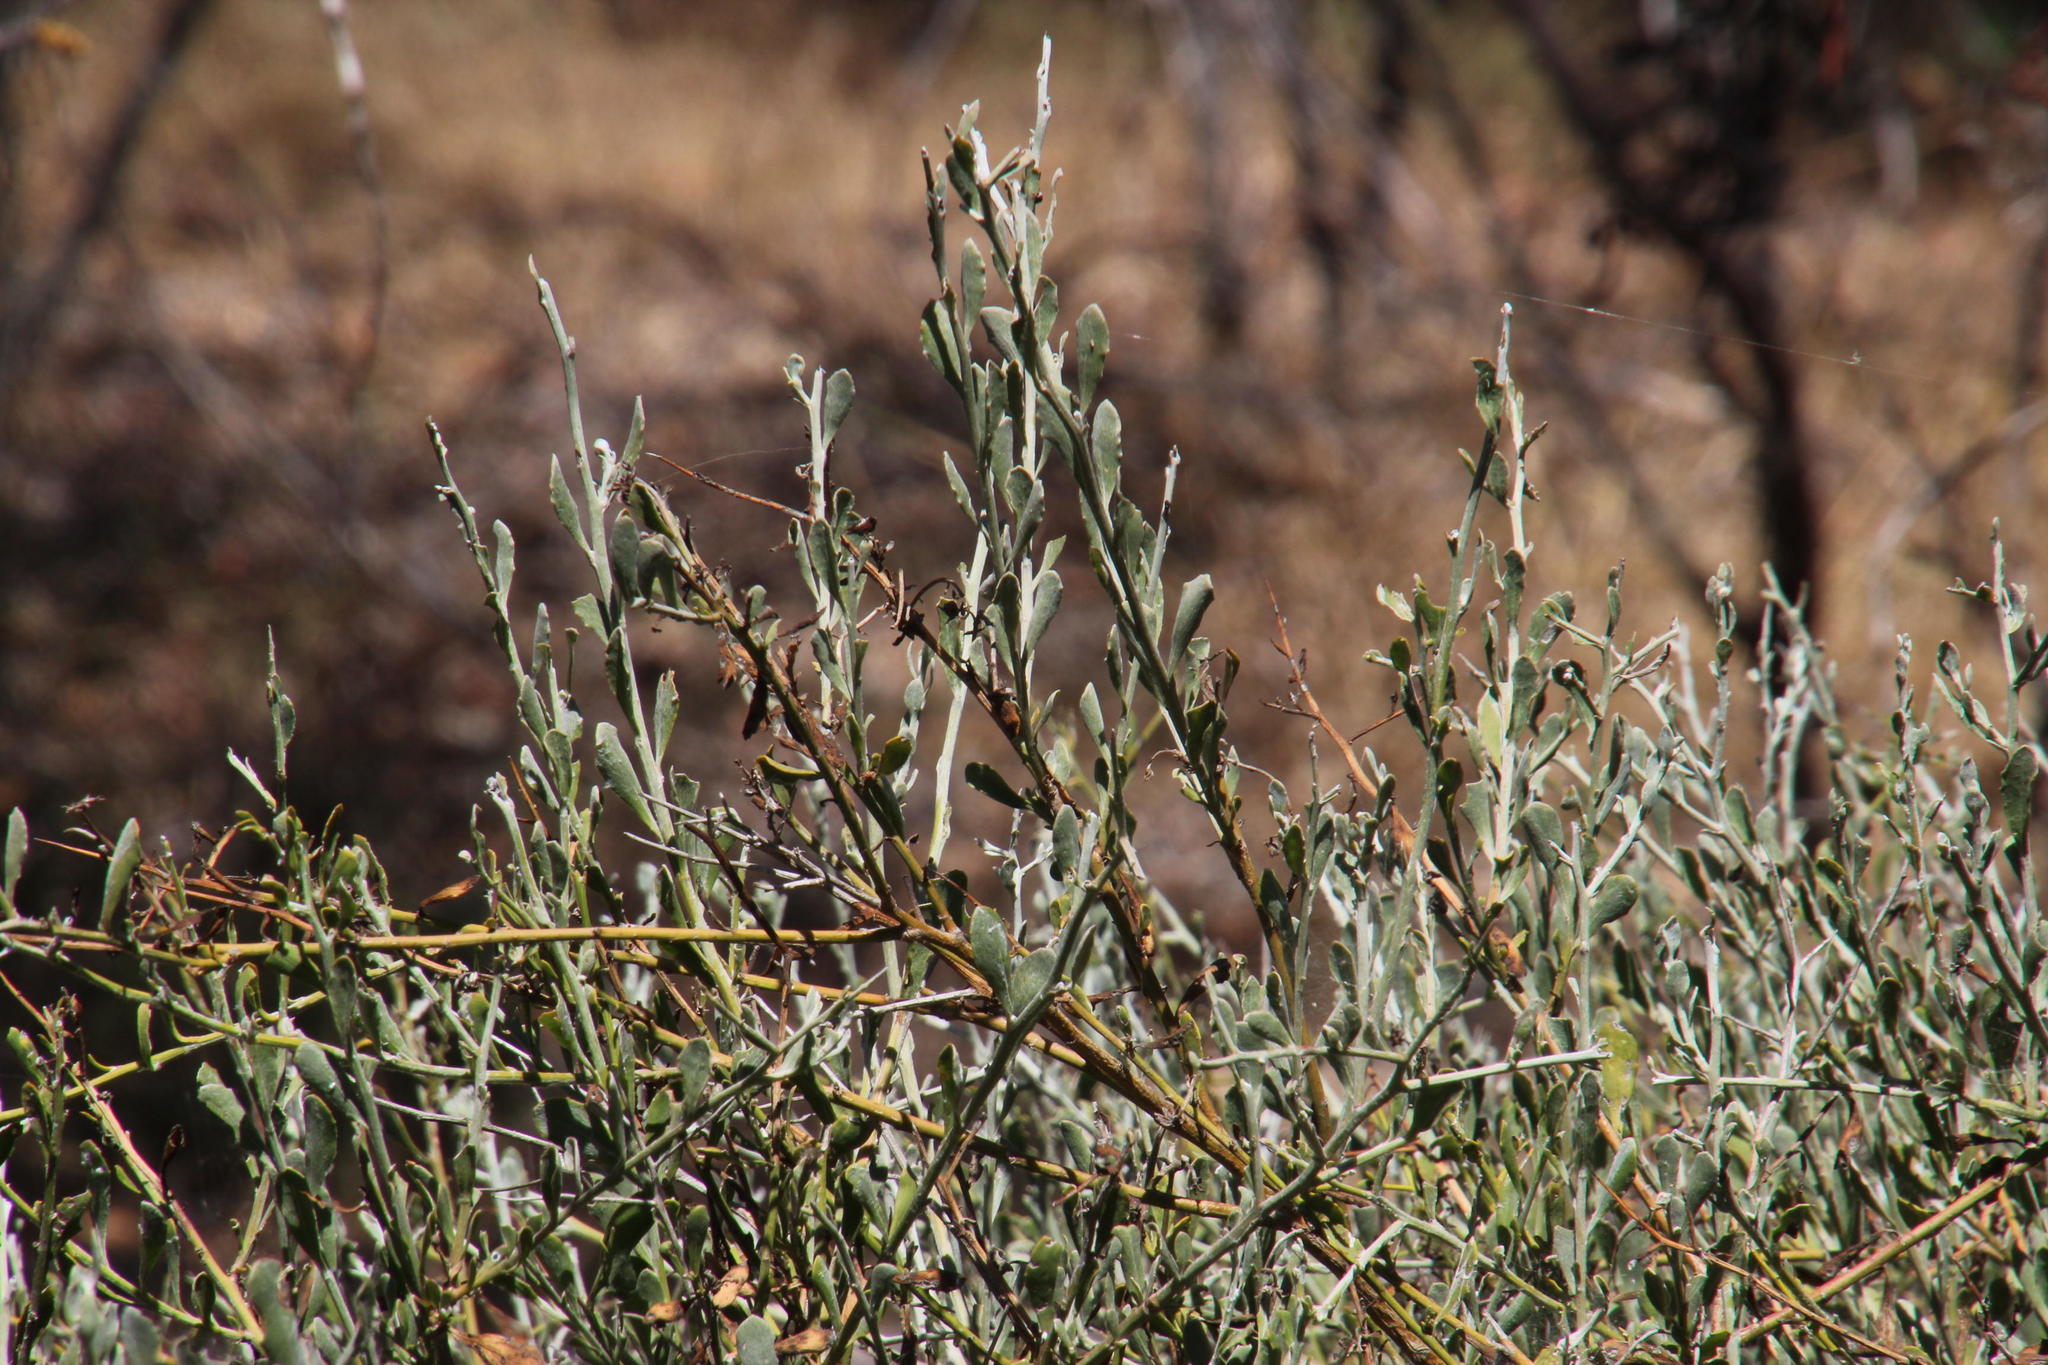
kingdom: Plantae
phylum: Tracheophyta
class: Magnoliopsida
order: Asterales
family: Asteraceae
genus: Osteospermum
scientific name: Osteospermum incanum
